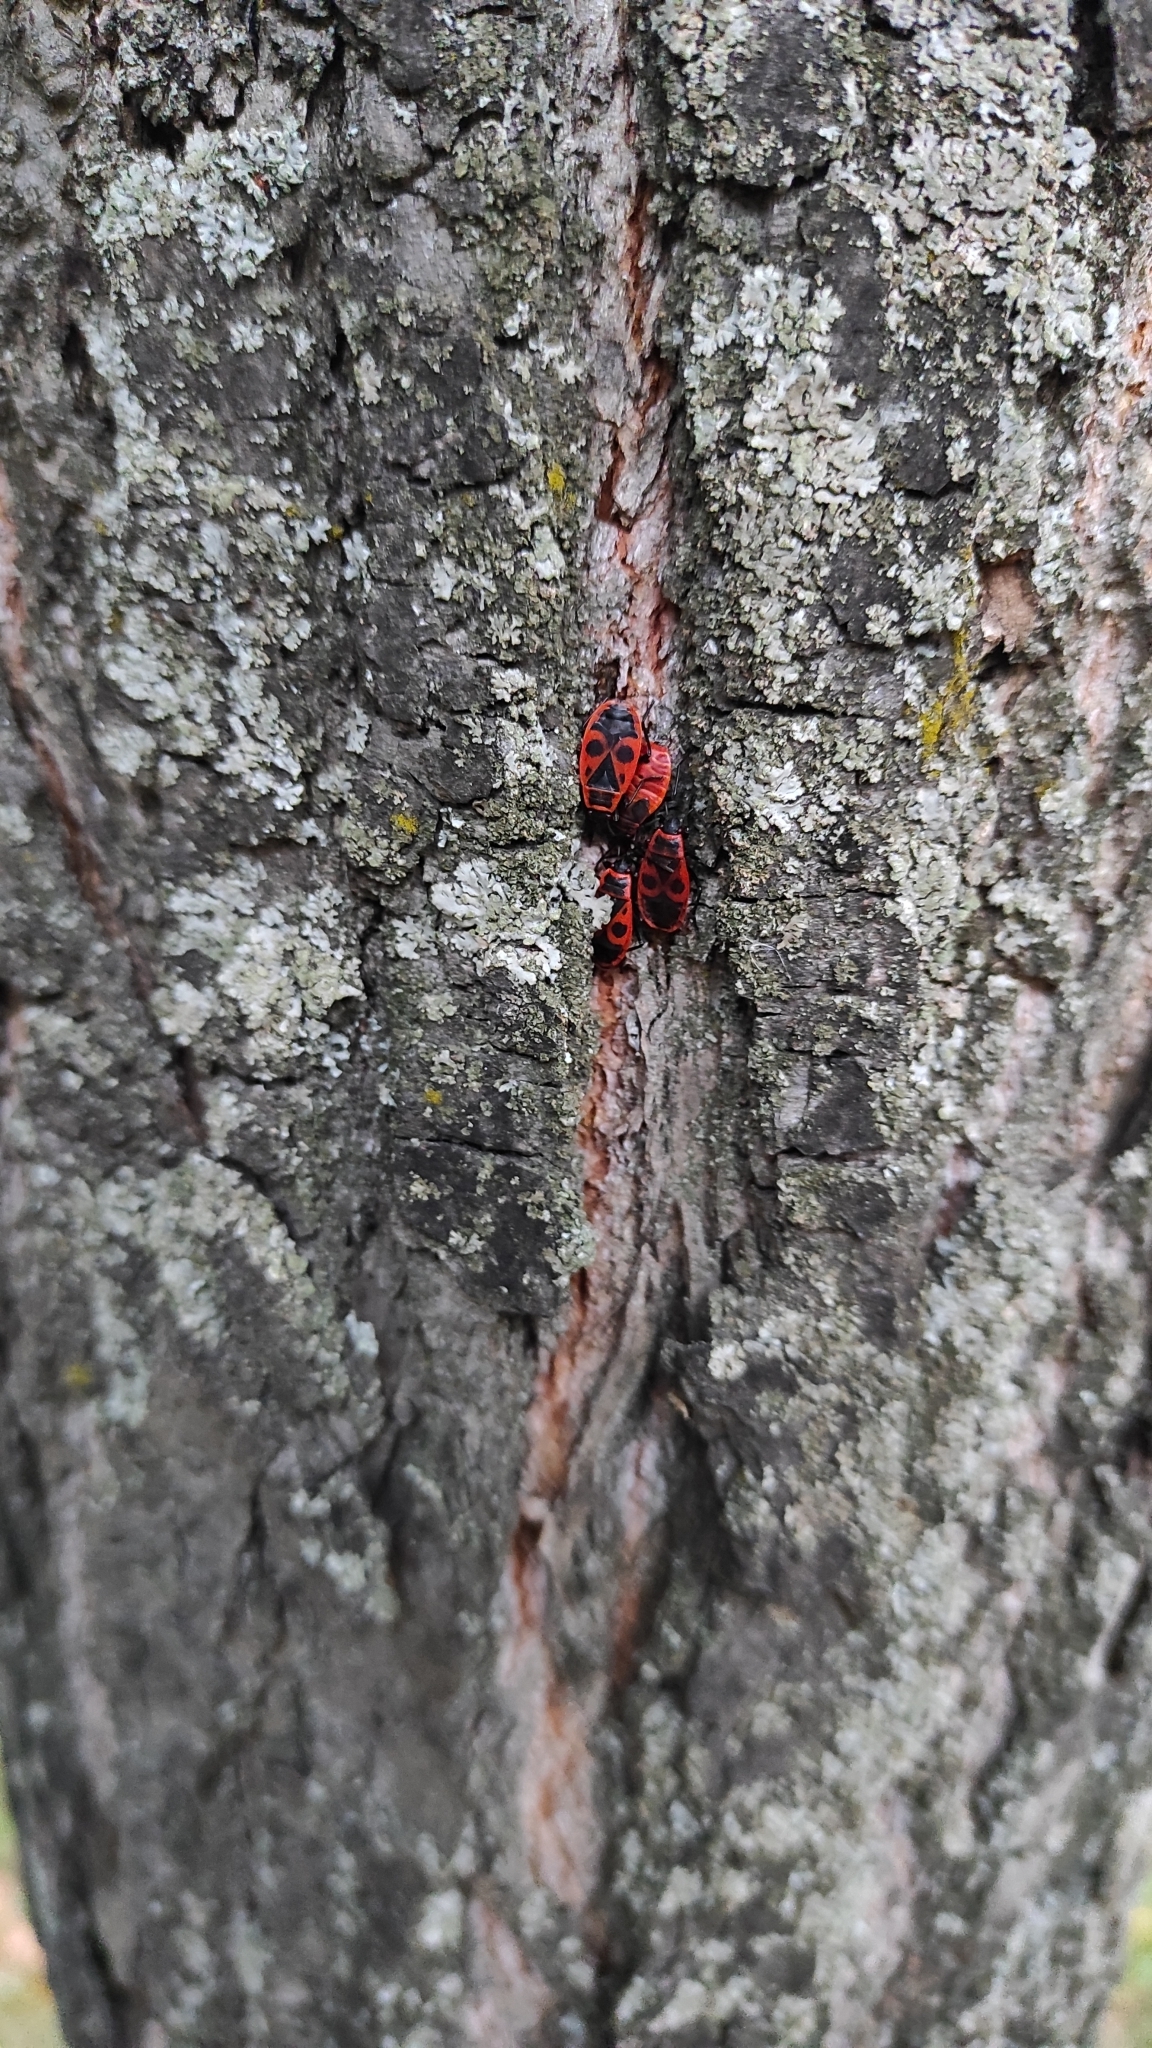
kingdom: Animalia
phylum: Arthropoda
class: Insecta
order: Hemiptera
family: Pyrrhocoridae
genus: Pyrrhocoris
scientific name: Pyrrhocoris apterus
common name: Firebug
